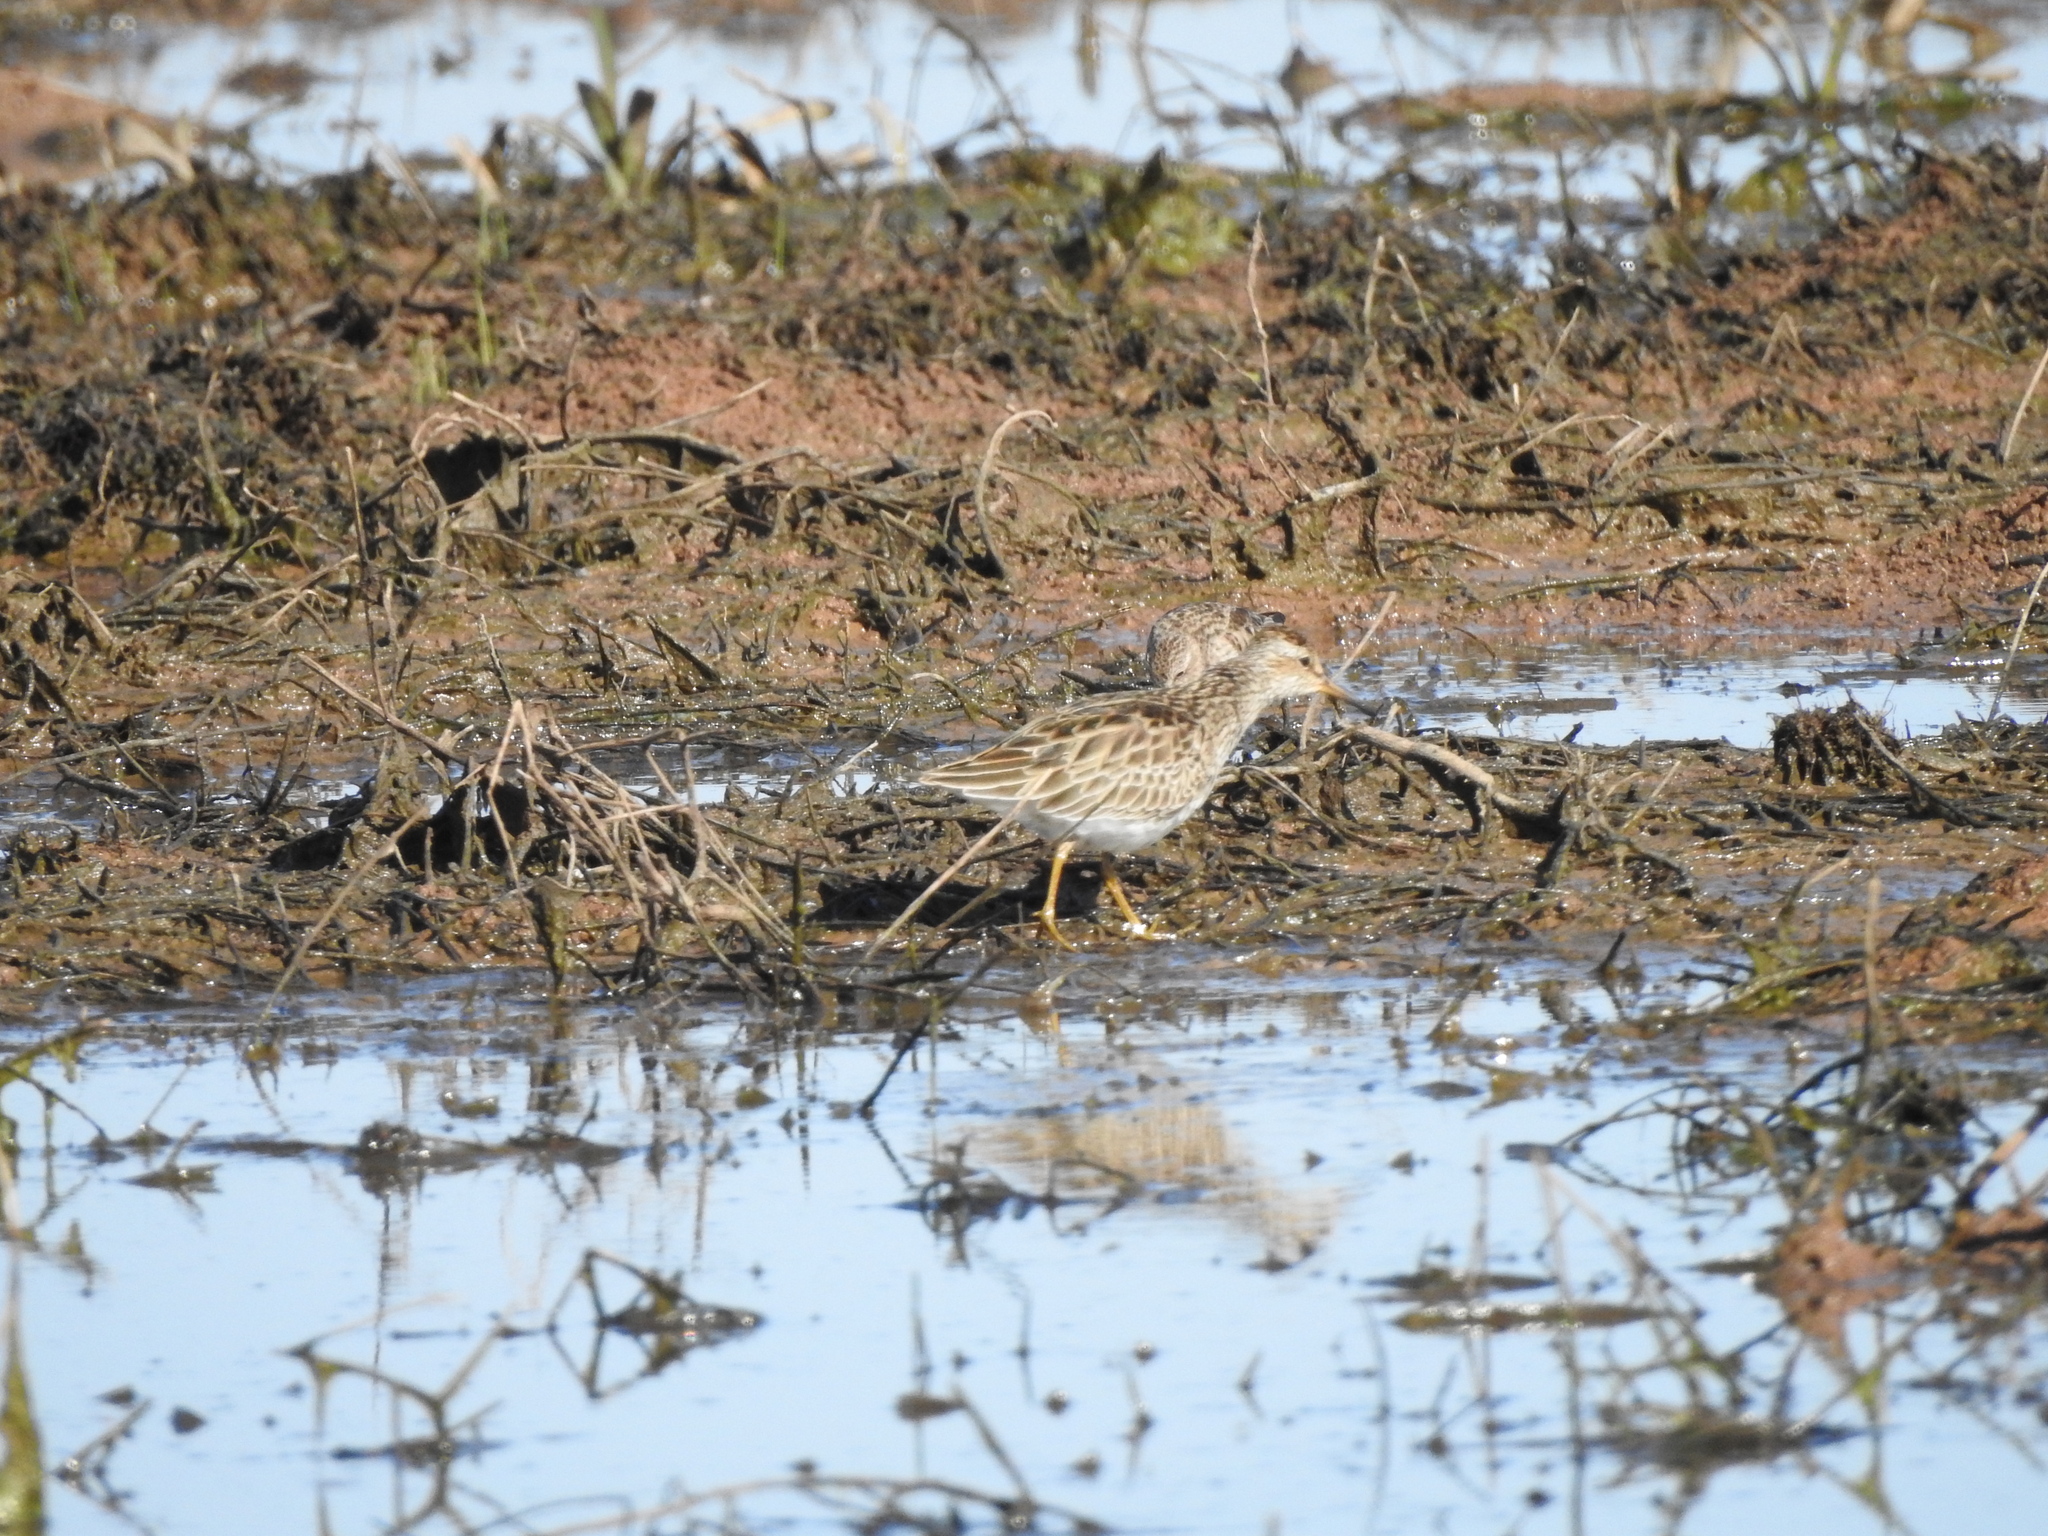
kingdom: Animalia
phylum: Chordata
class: Aves
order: Charadriiformes
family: Scolopacidae
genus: Calidris
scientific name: Calidris melanotos
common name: Pectoral sandpiper
